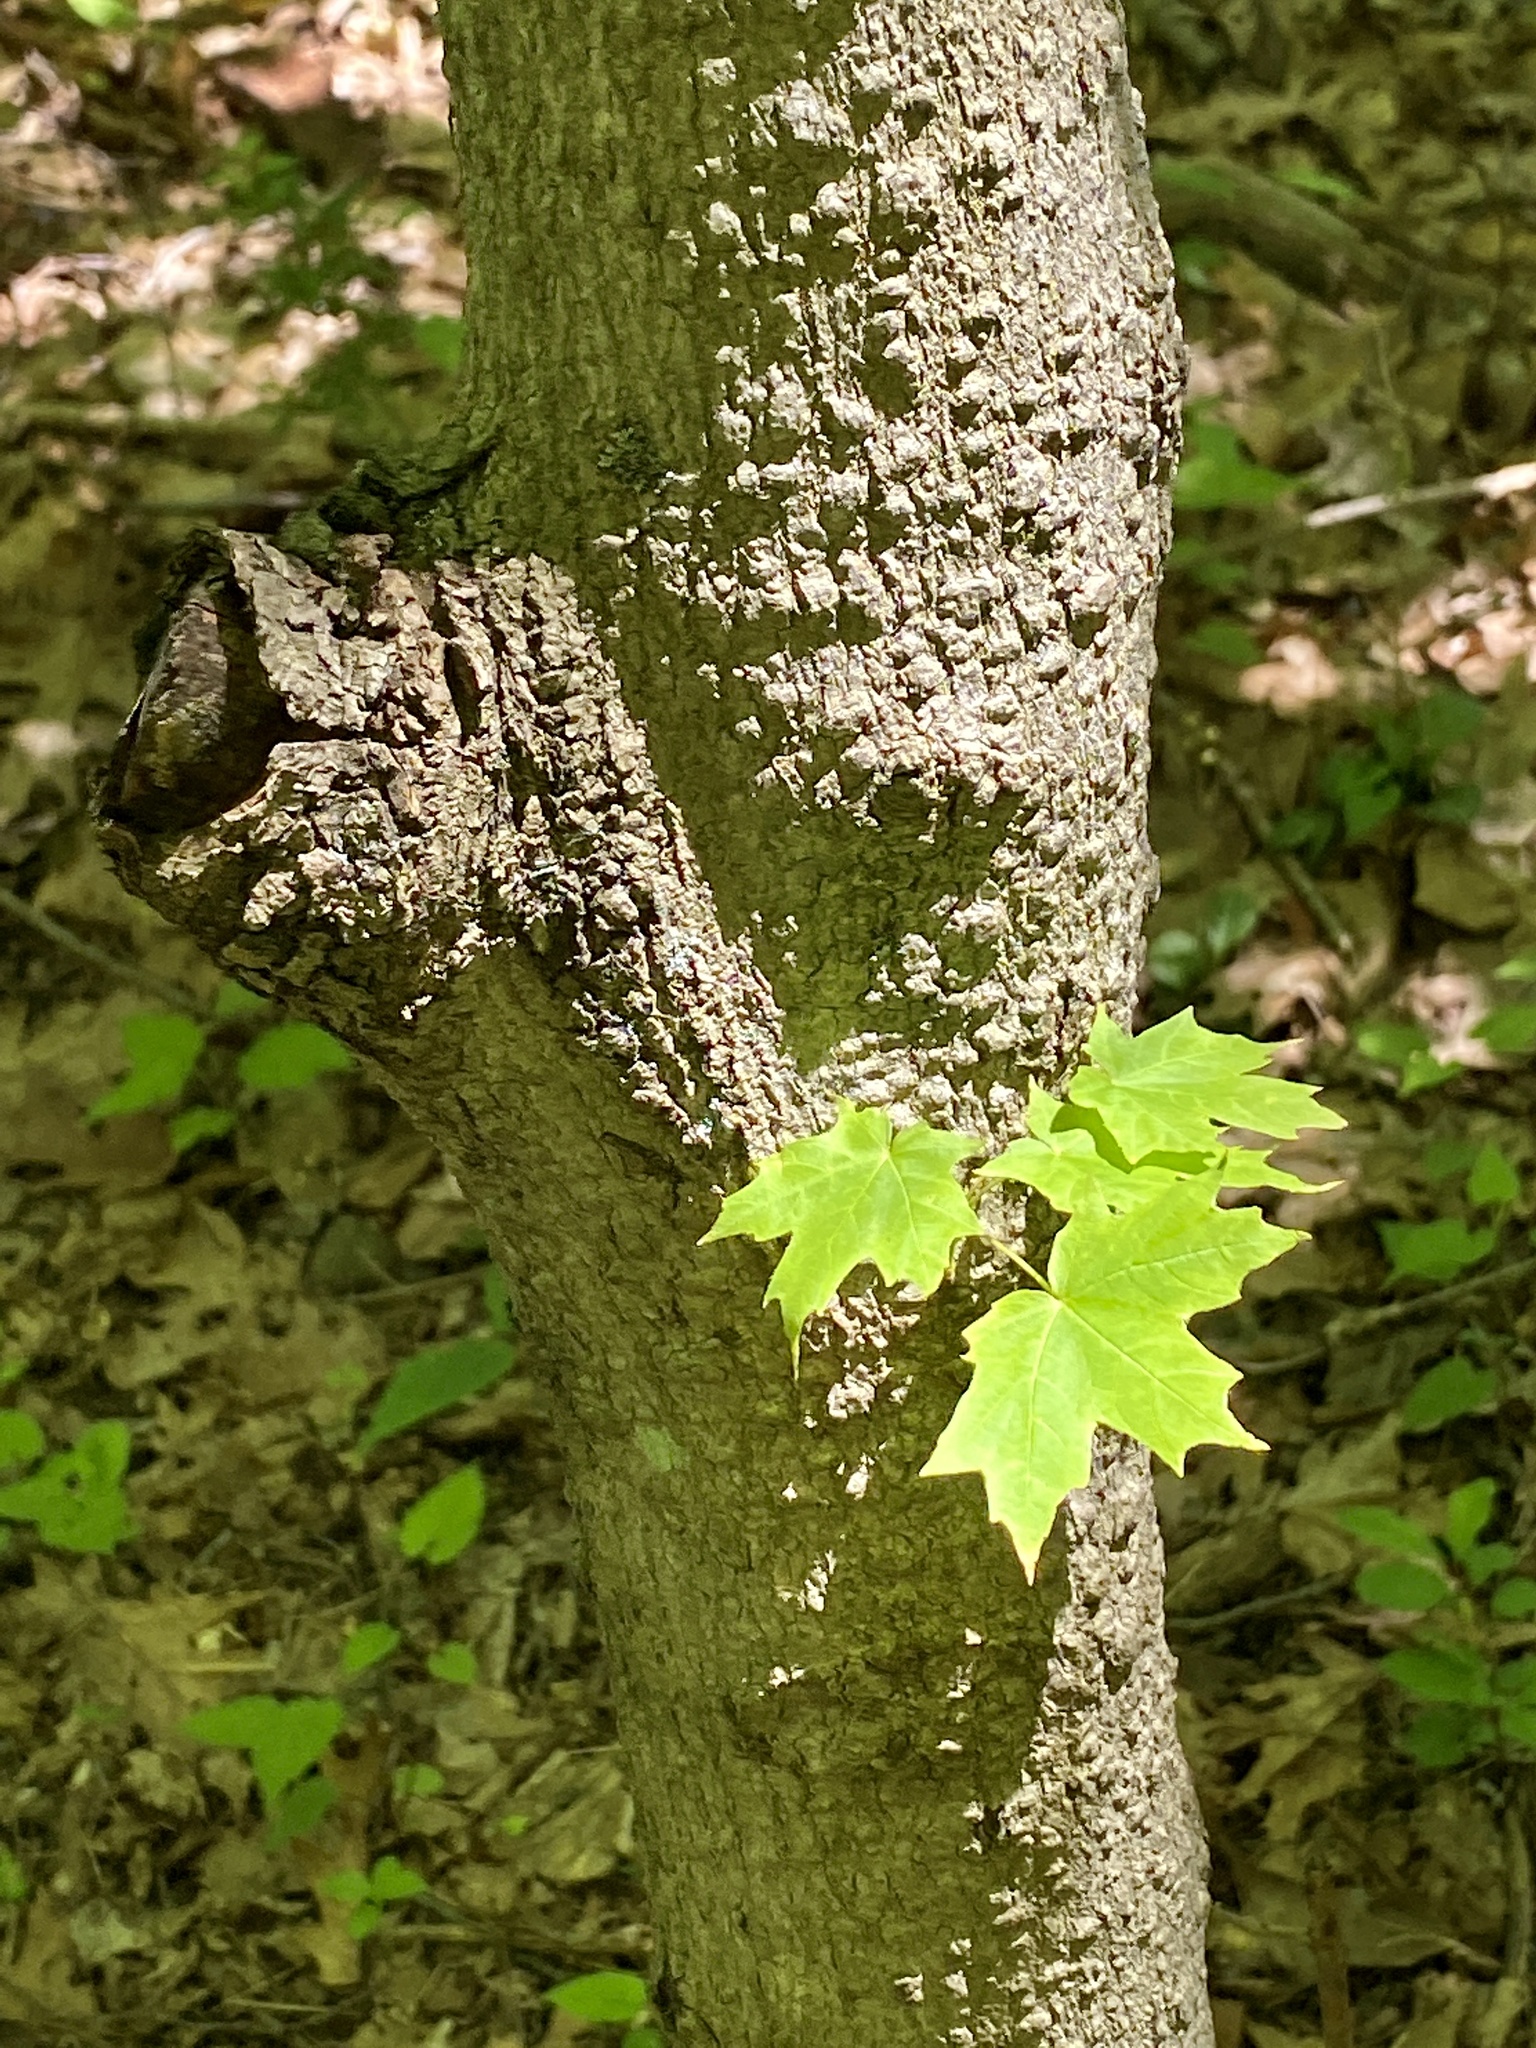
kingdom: Plantae
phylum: Tracheophyta
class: Magnoliopsida
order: Sapindales
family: Sapindaceae
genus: Acer
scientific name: Acer platanoides
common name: Norway maple
